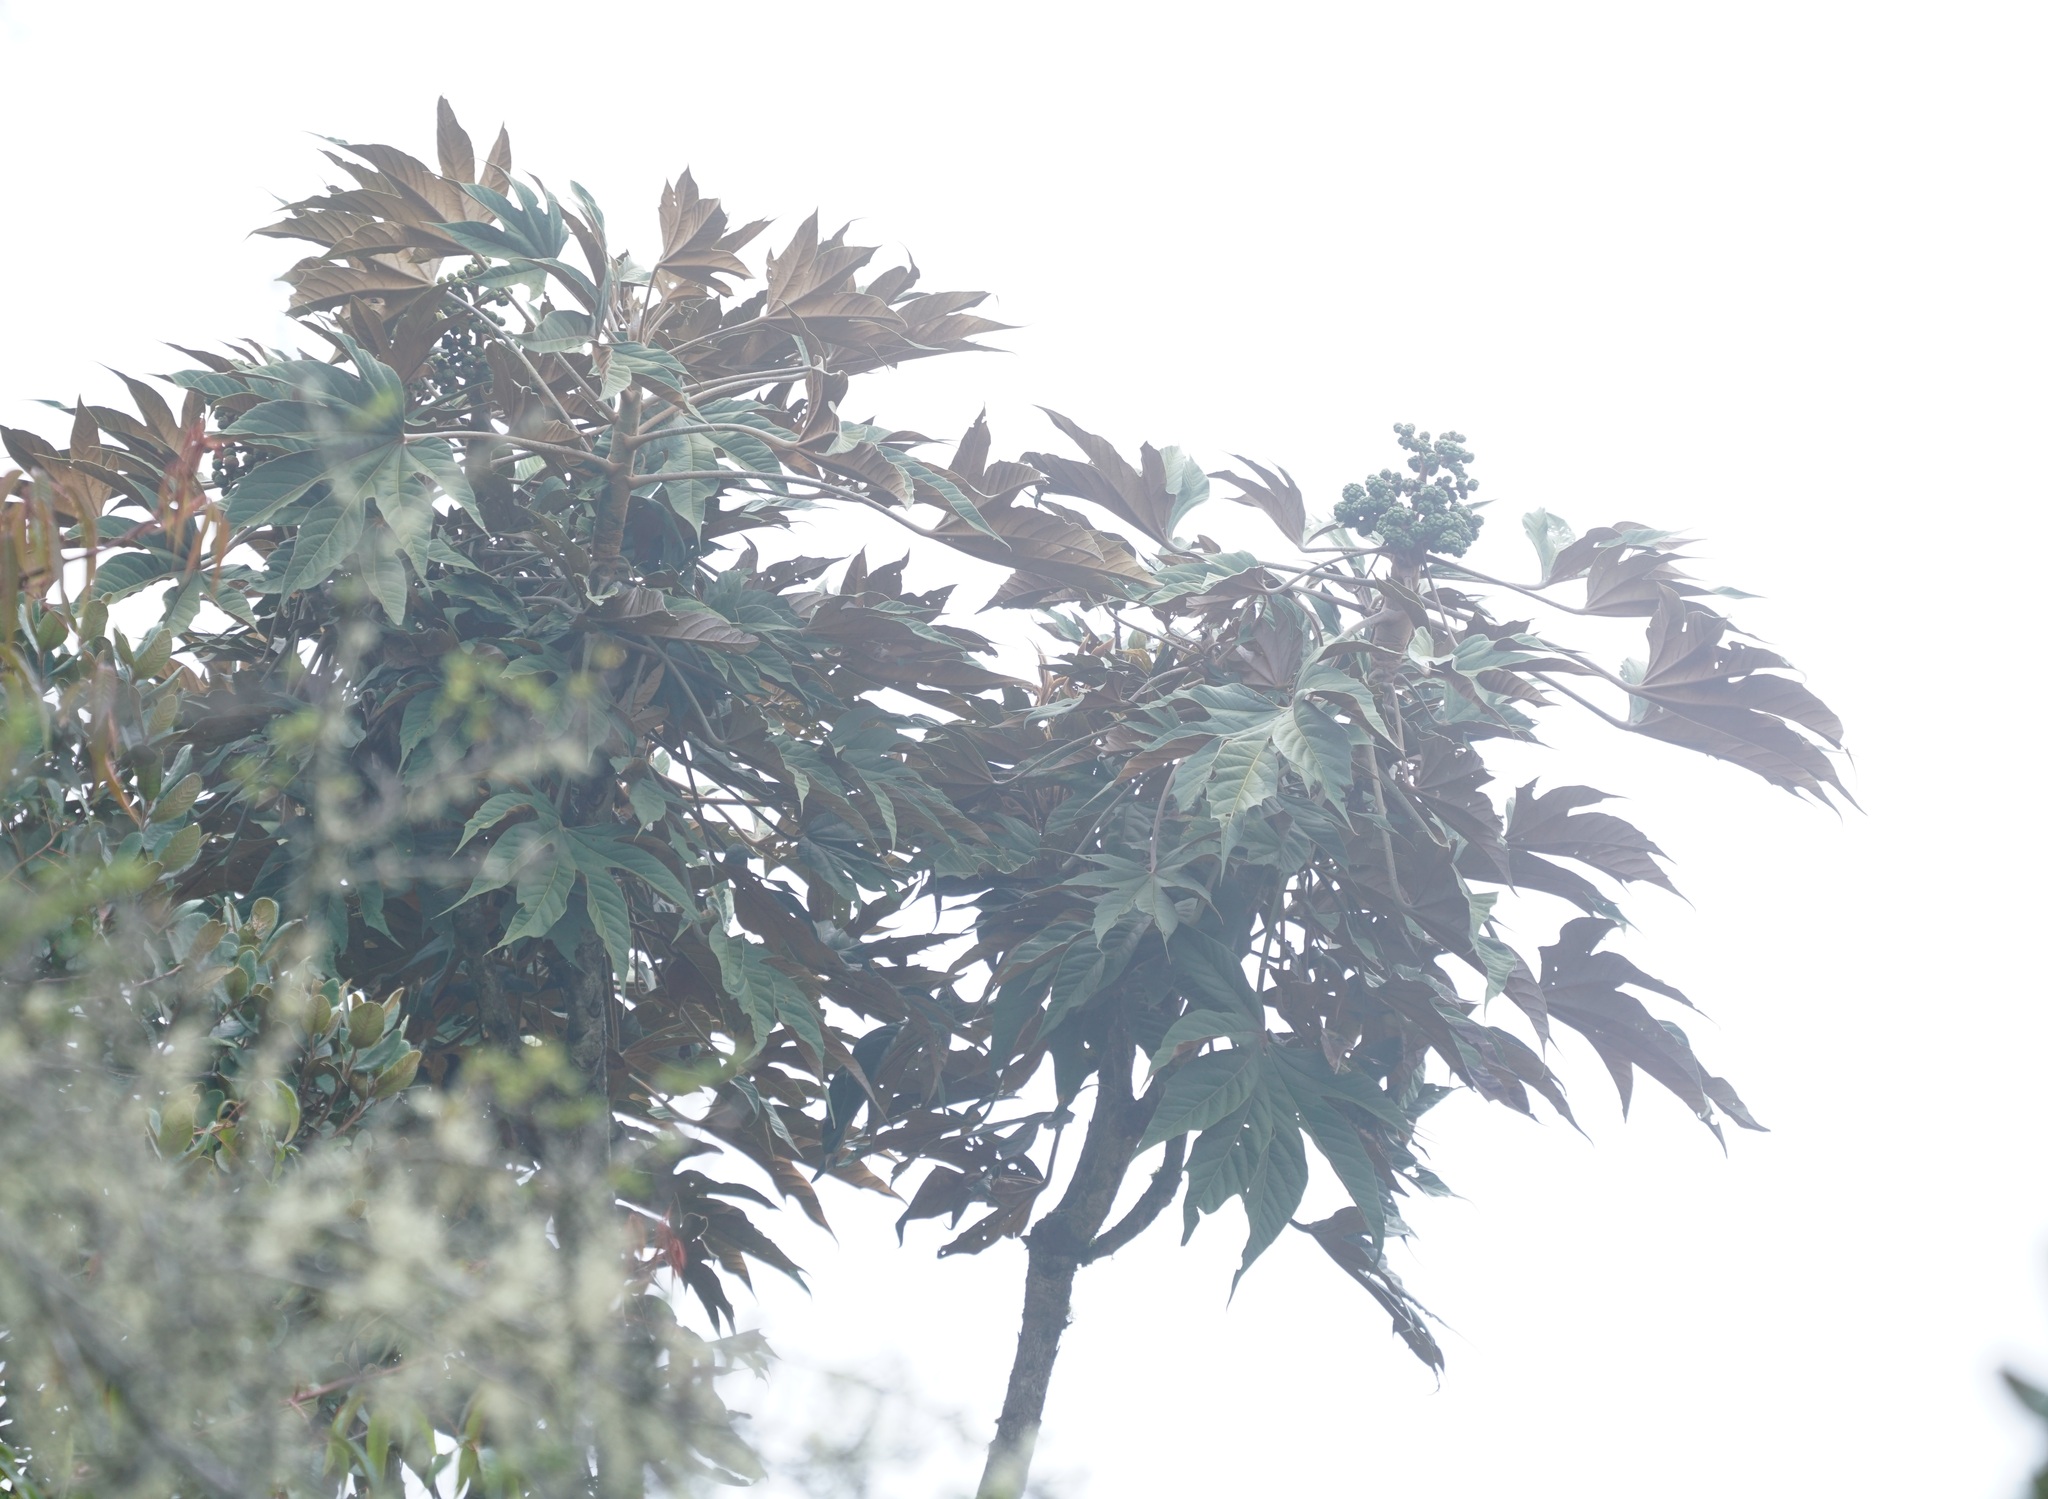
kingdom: Plantae
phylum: Tracheophyta
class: Magnoliopsida
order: Malpighiales
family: Euphorbiaceae
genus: Ricinus
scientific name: Ricinus communis
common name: Castor-oil-plant
